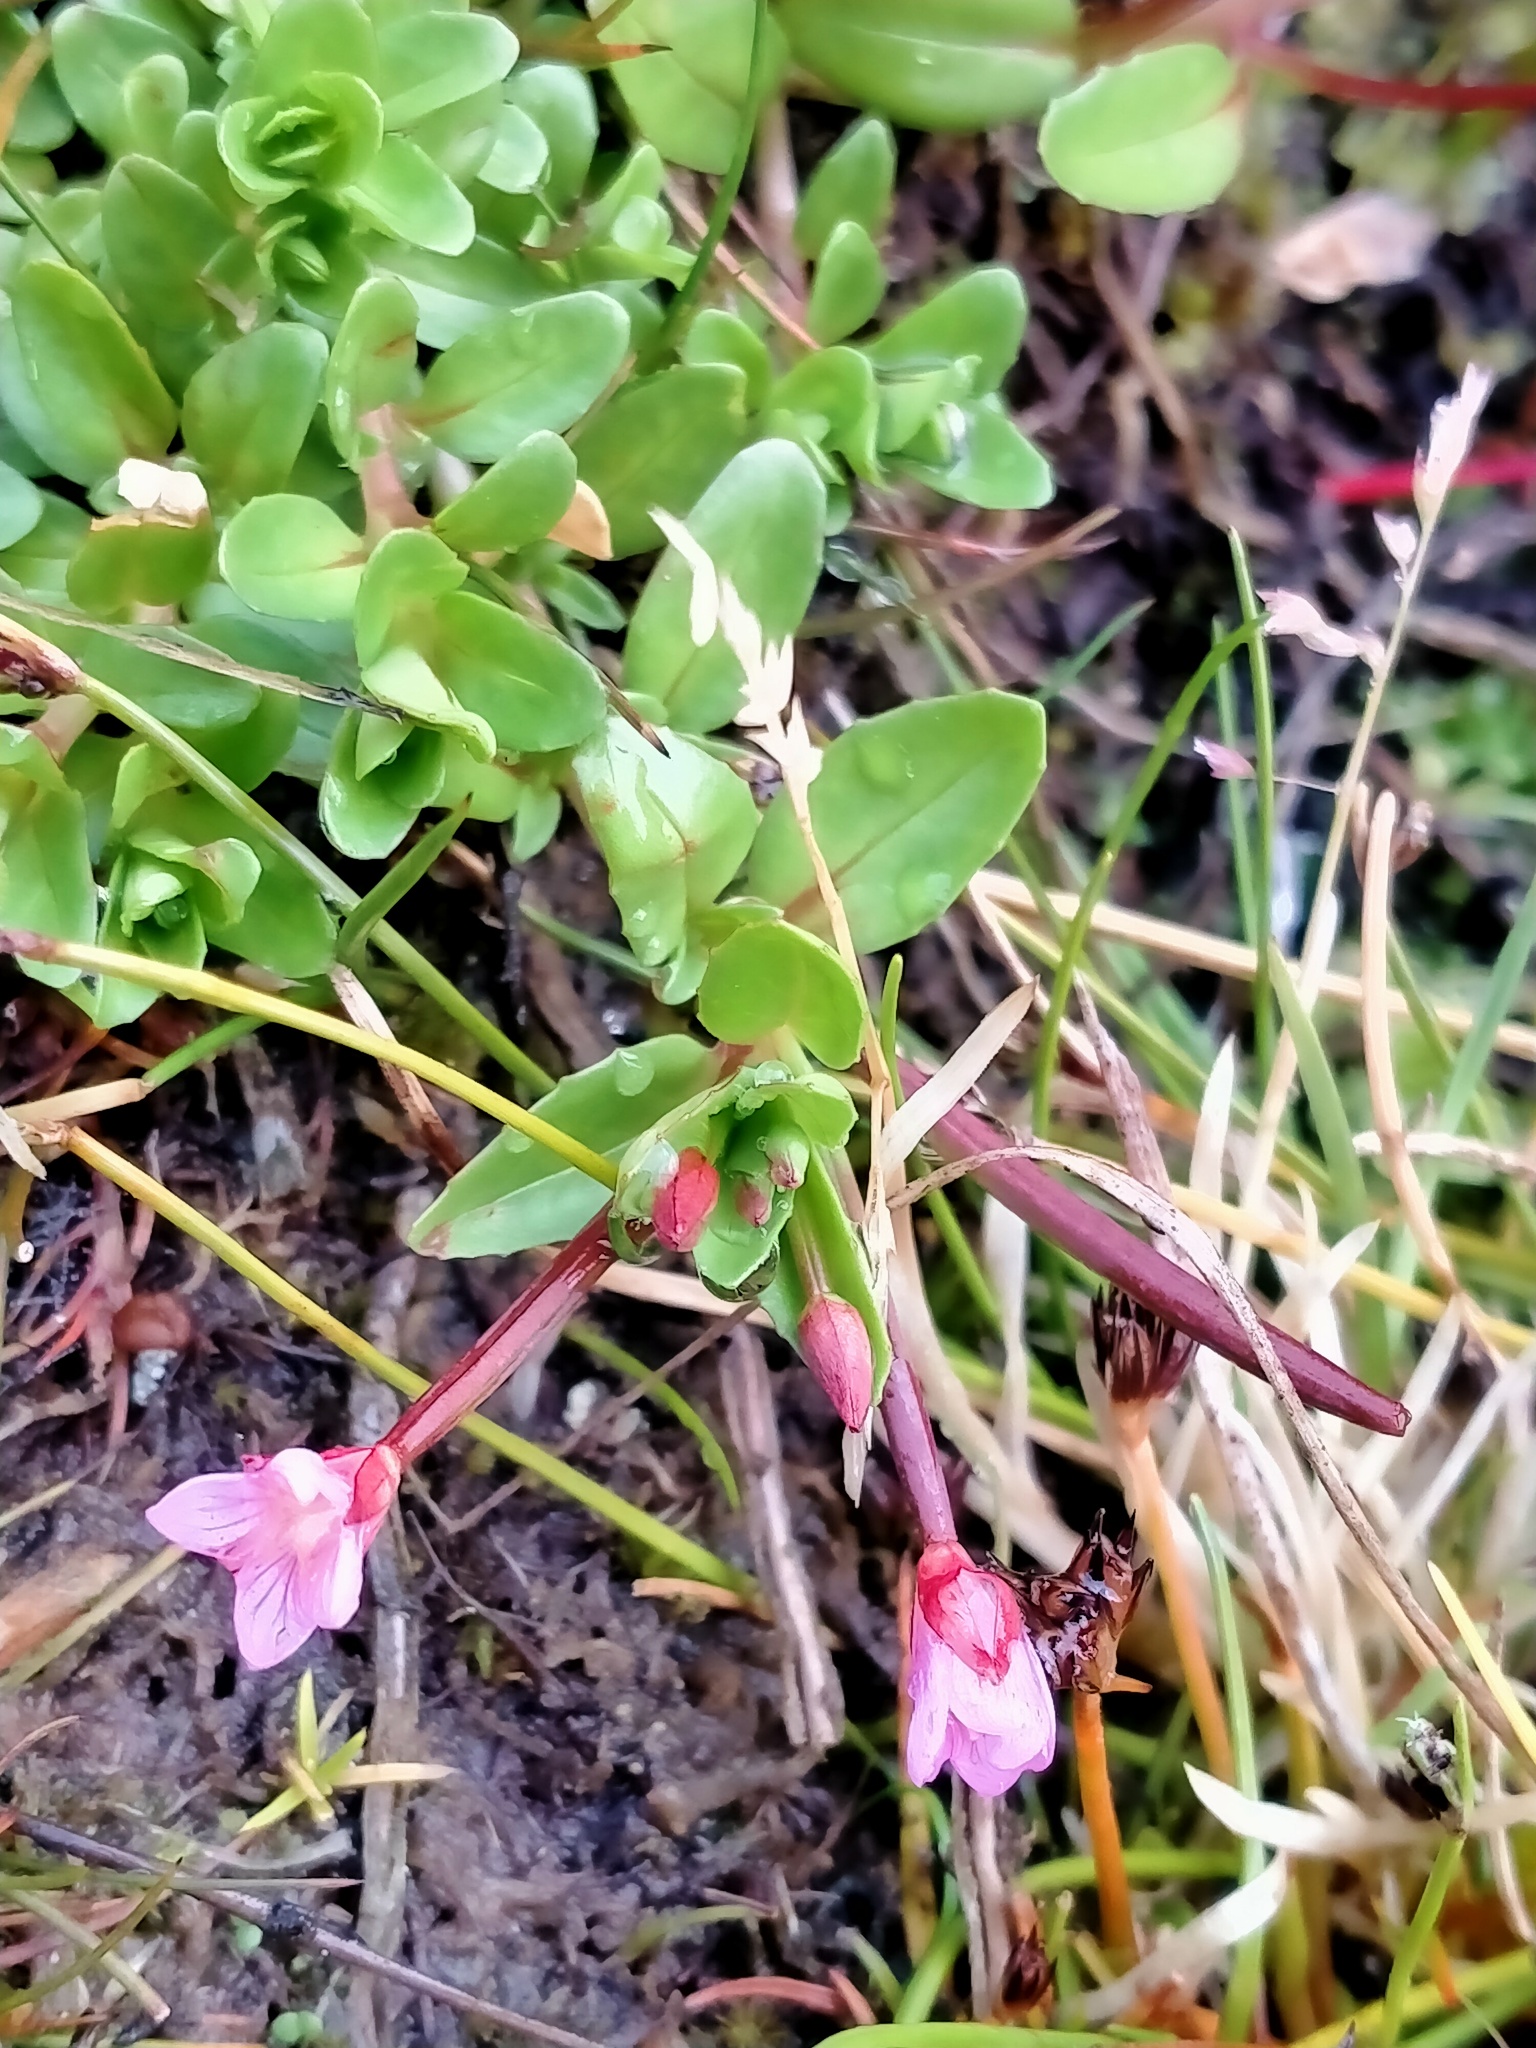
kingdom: Plantae
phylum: Tracheophyta
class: Magnoliopsida
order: Myrtales
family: Onagraceae
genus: Epilobium
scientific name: Epilobium confertifolium
